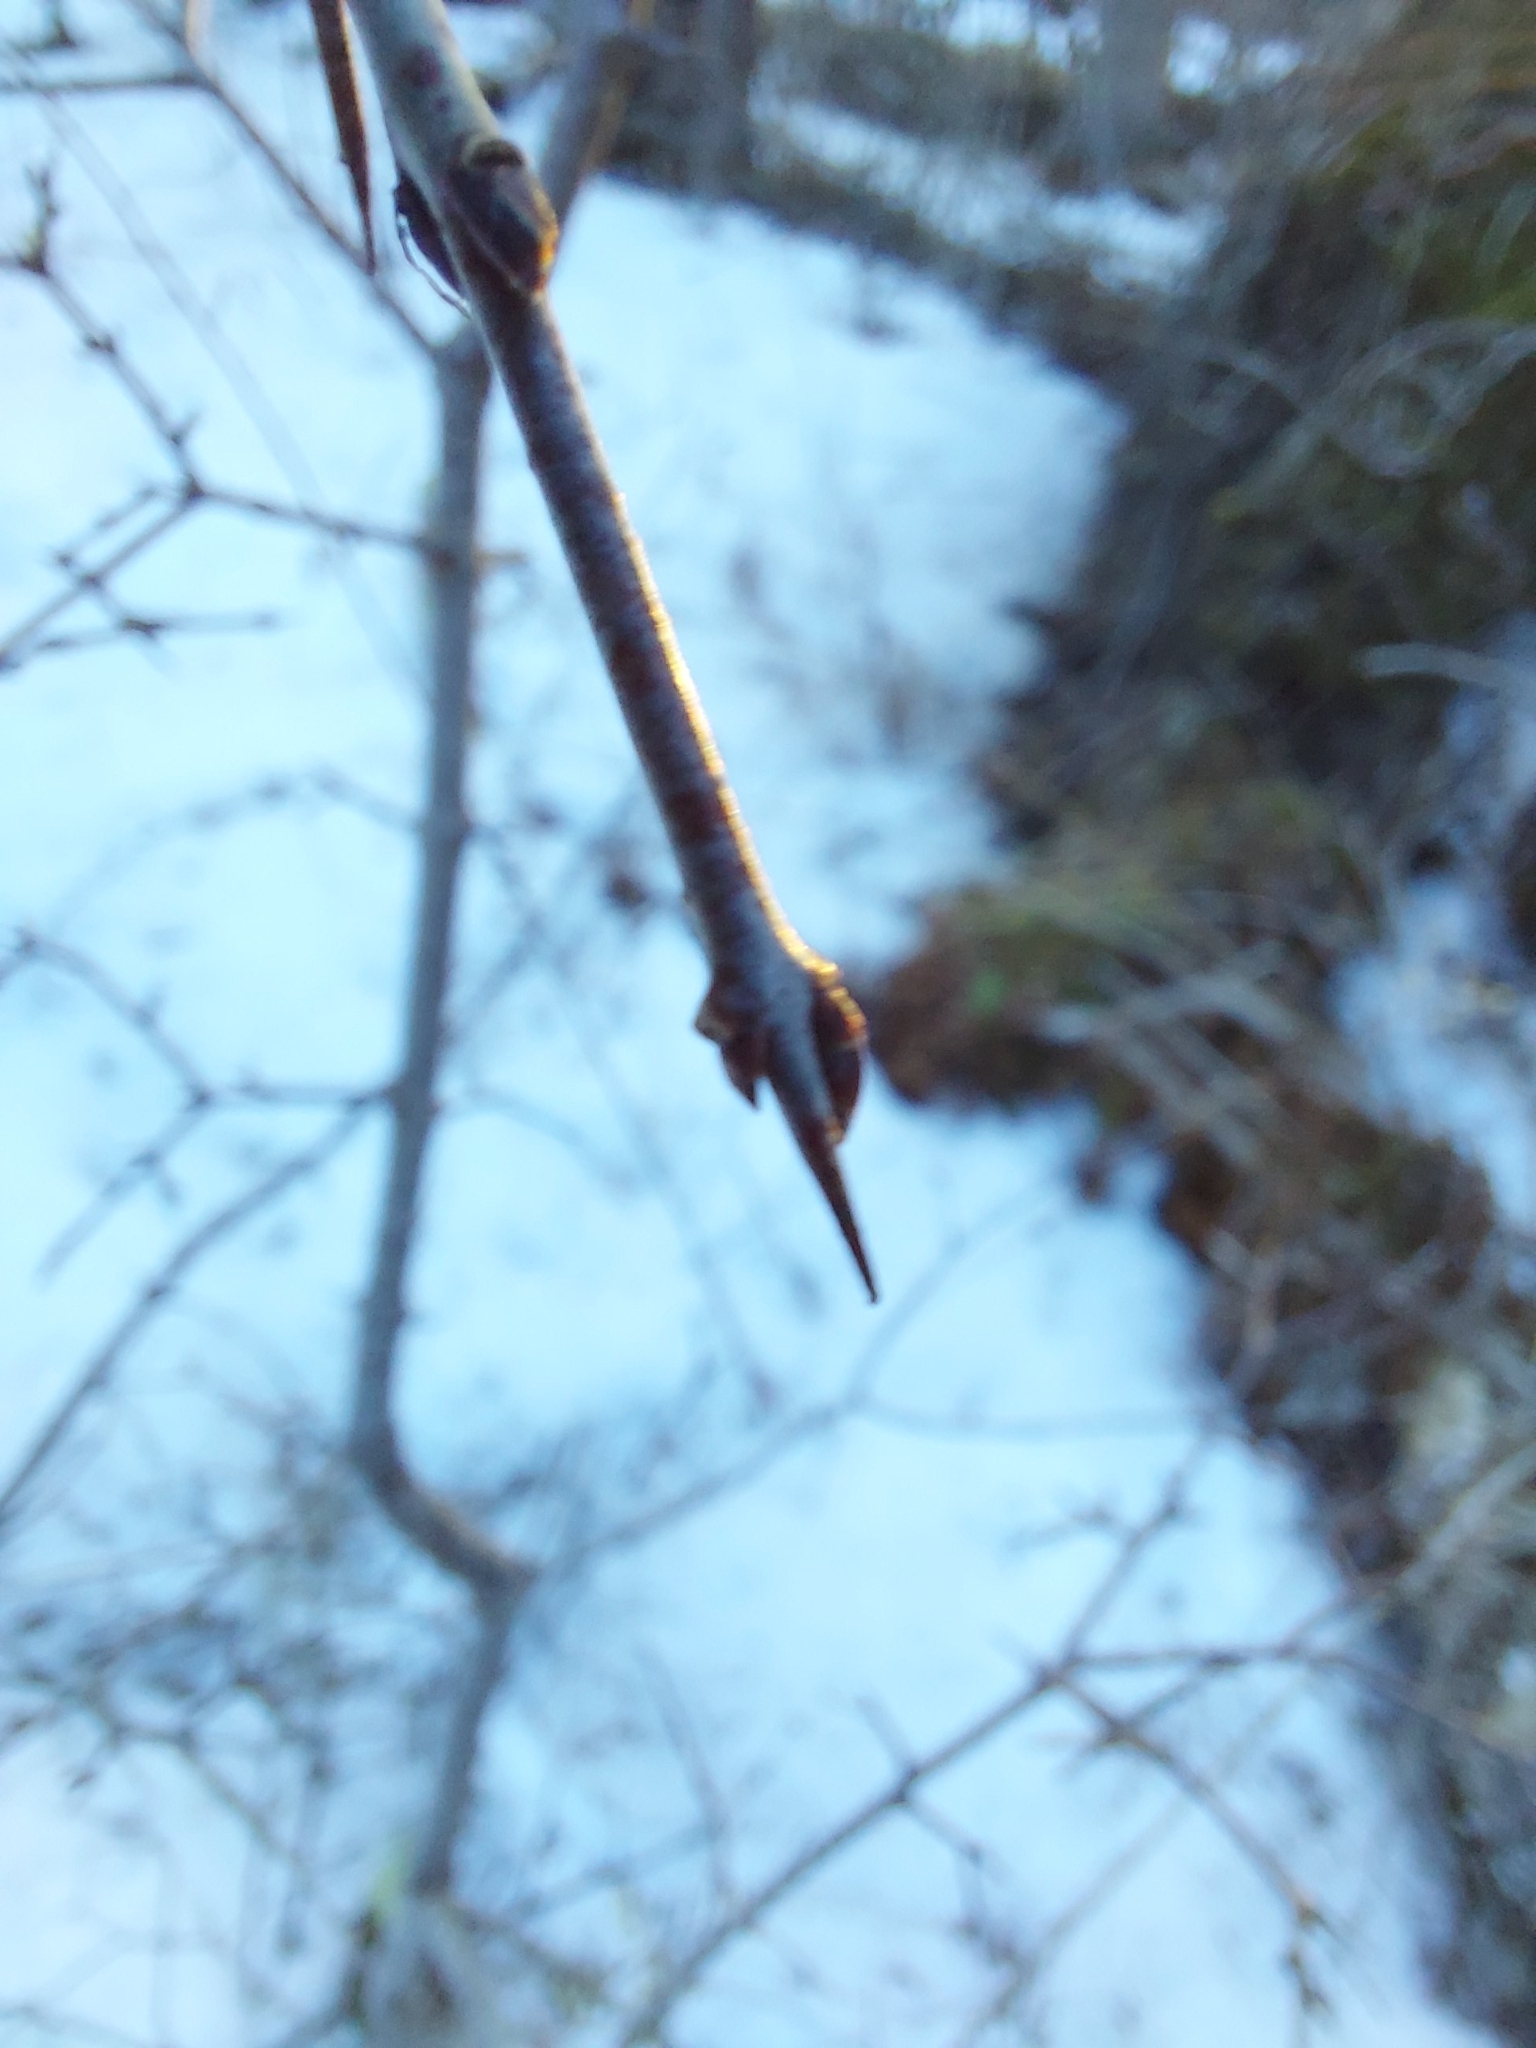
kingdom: Plantae
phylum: Tracheophyta
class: Magnoliopsida
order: Rosales
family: Rhamnaceae
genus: Rhamnus
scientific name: Rhamnus cathartica
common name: Common buckthorn
